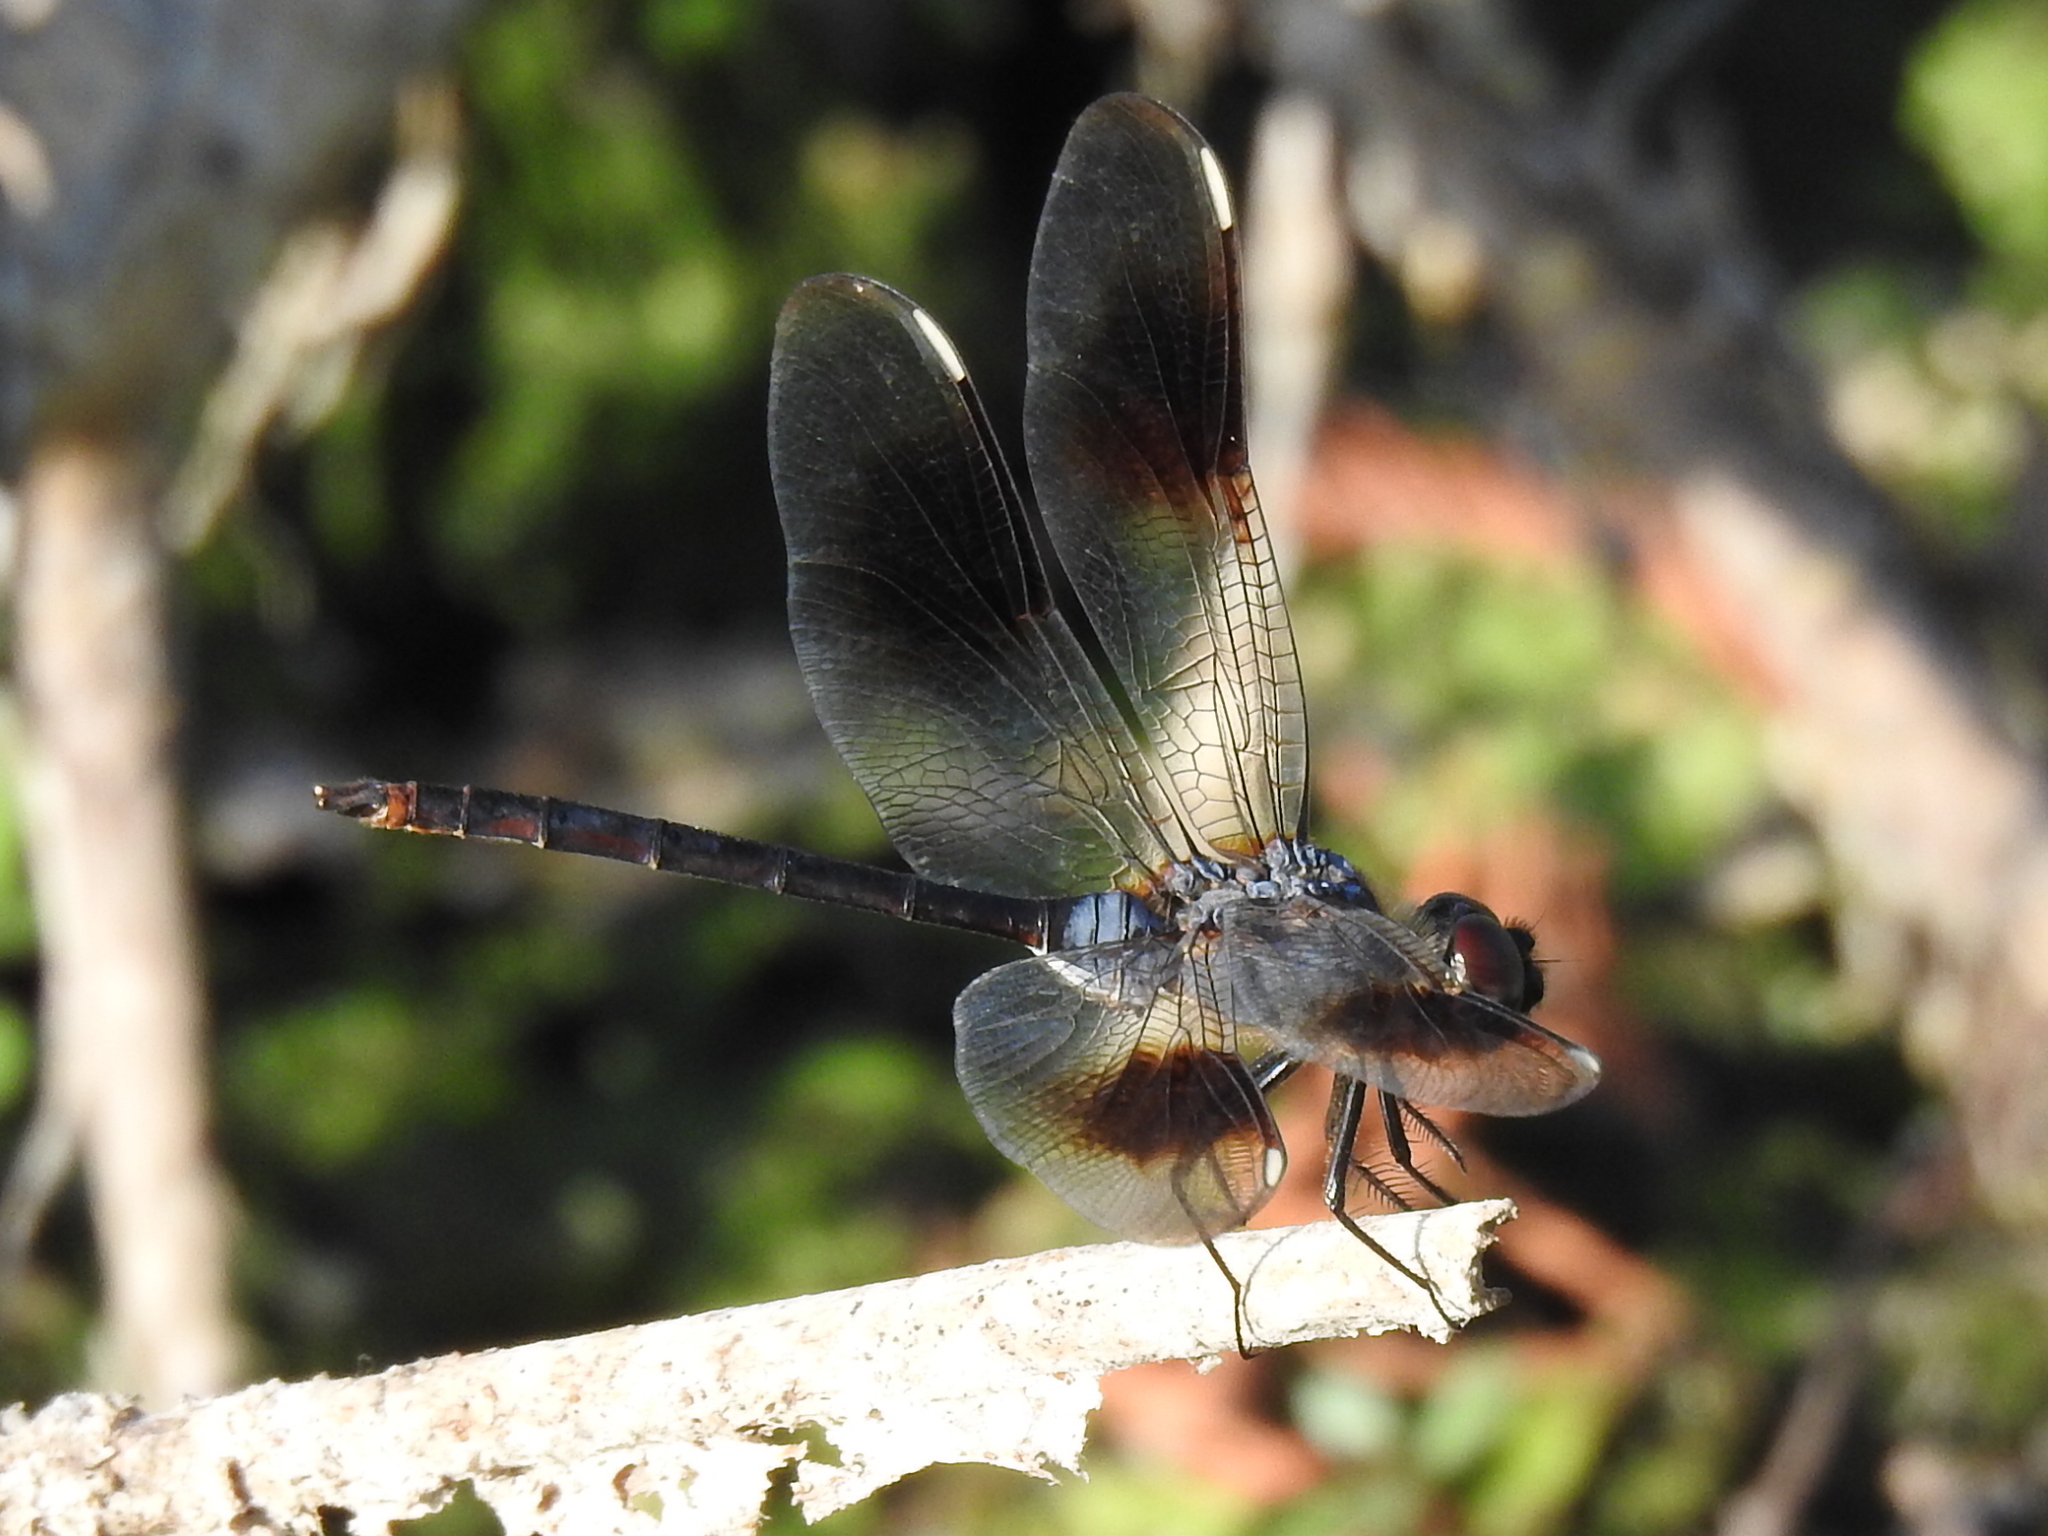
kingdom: Animalia
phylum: Arthropoda
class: Insecta
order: Odonata
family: Libellulidae
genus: Brachymesia
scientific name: Brachymesia gravida
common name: Four-spotted pennant
